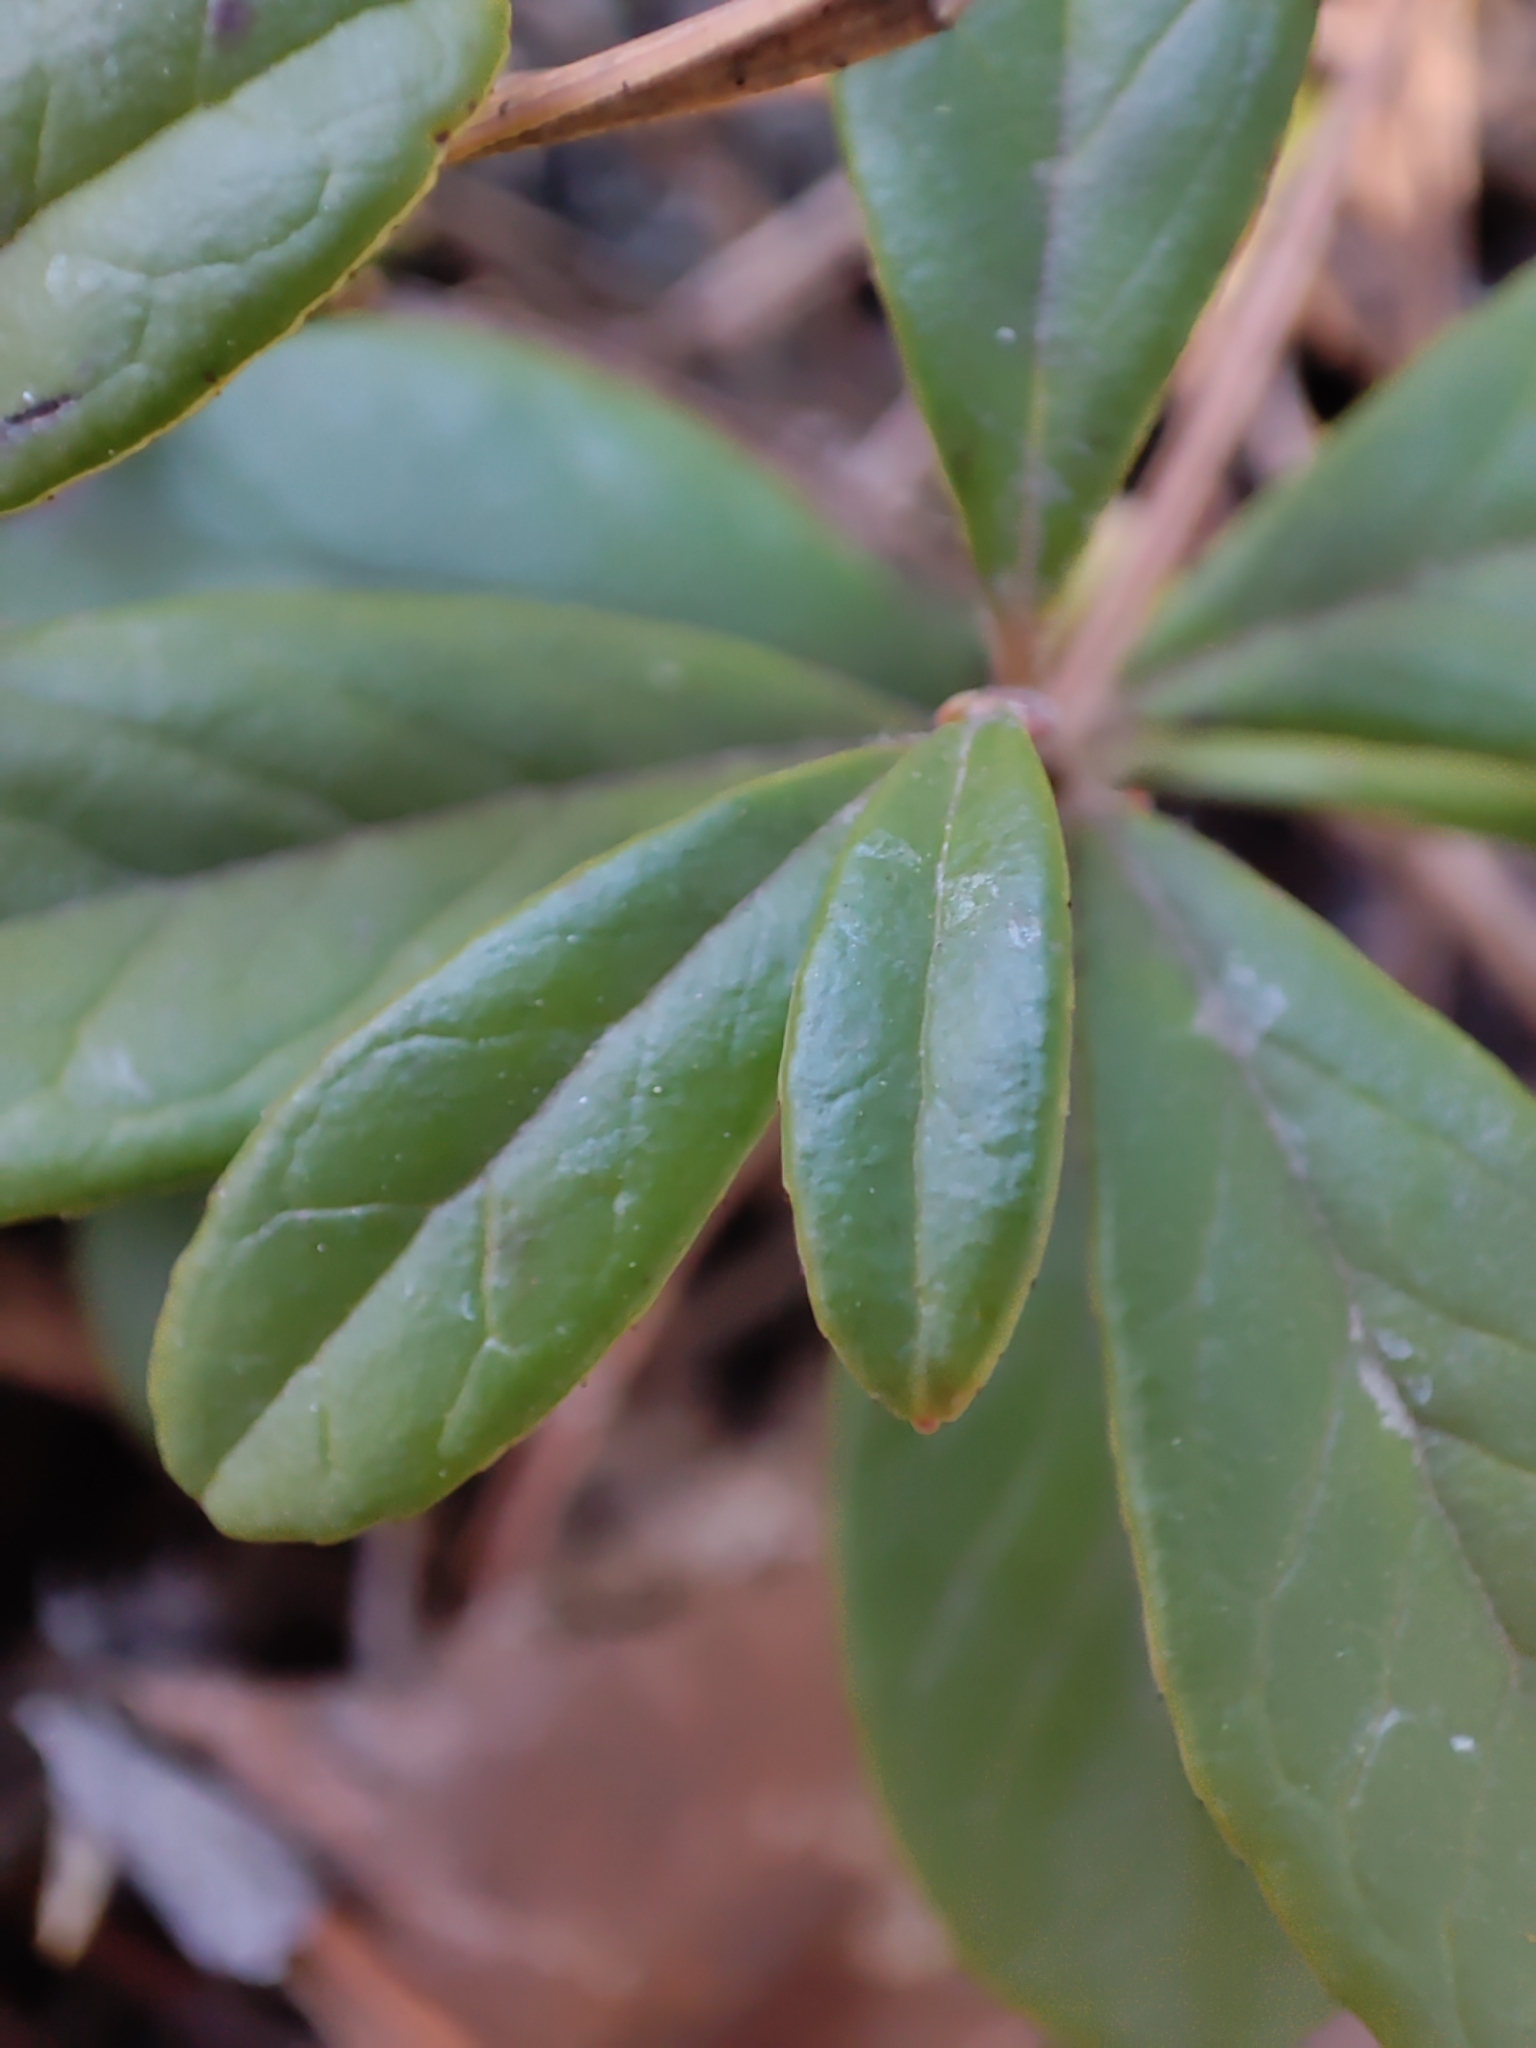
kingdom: Plantae
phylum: Tracheophyta
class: Magnoliopsida
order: Ericales
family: Ericaceae
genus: Vaccinium
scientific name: Vaccinium vitis-idaea
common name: Cowberry
